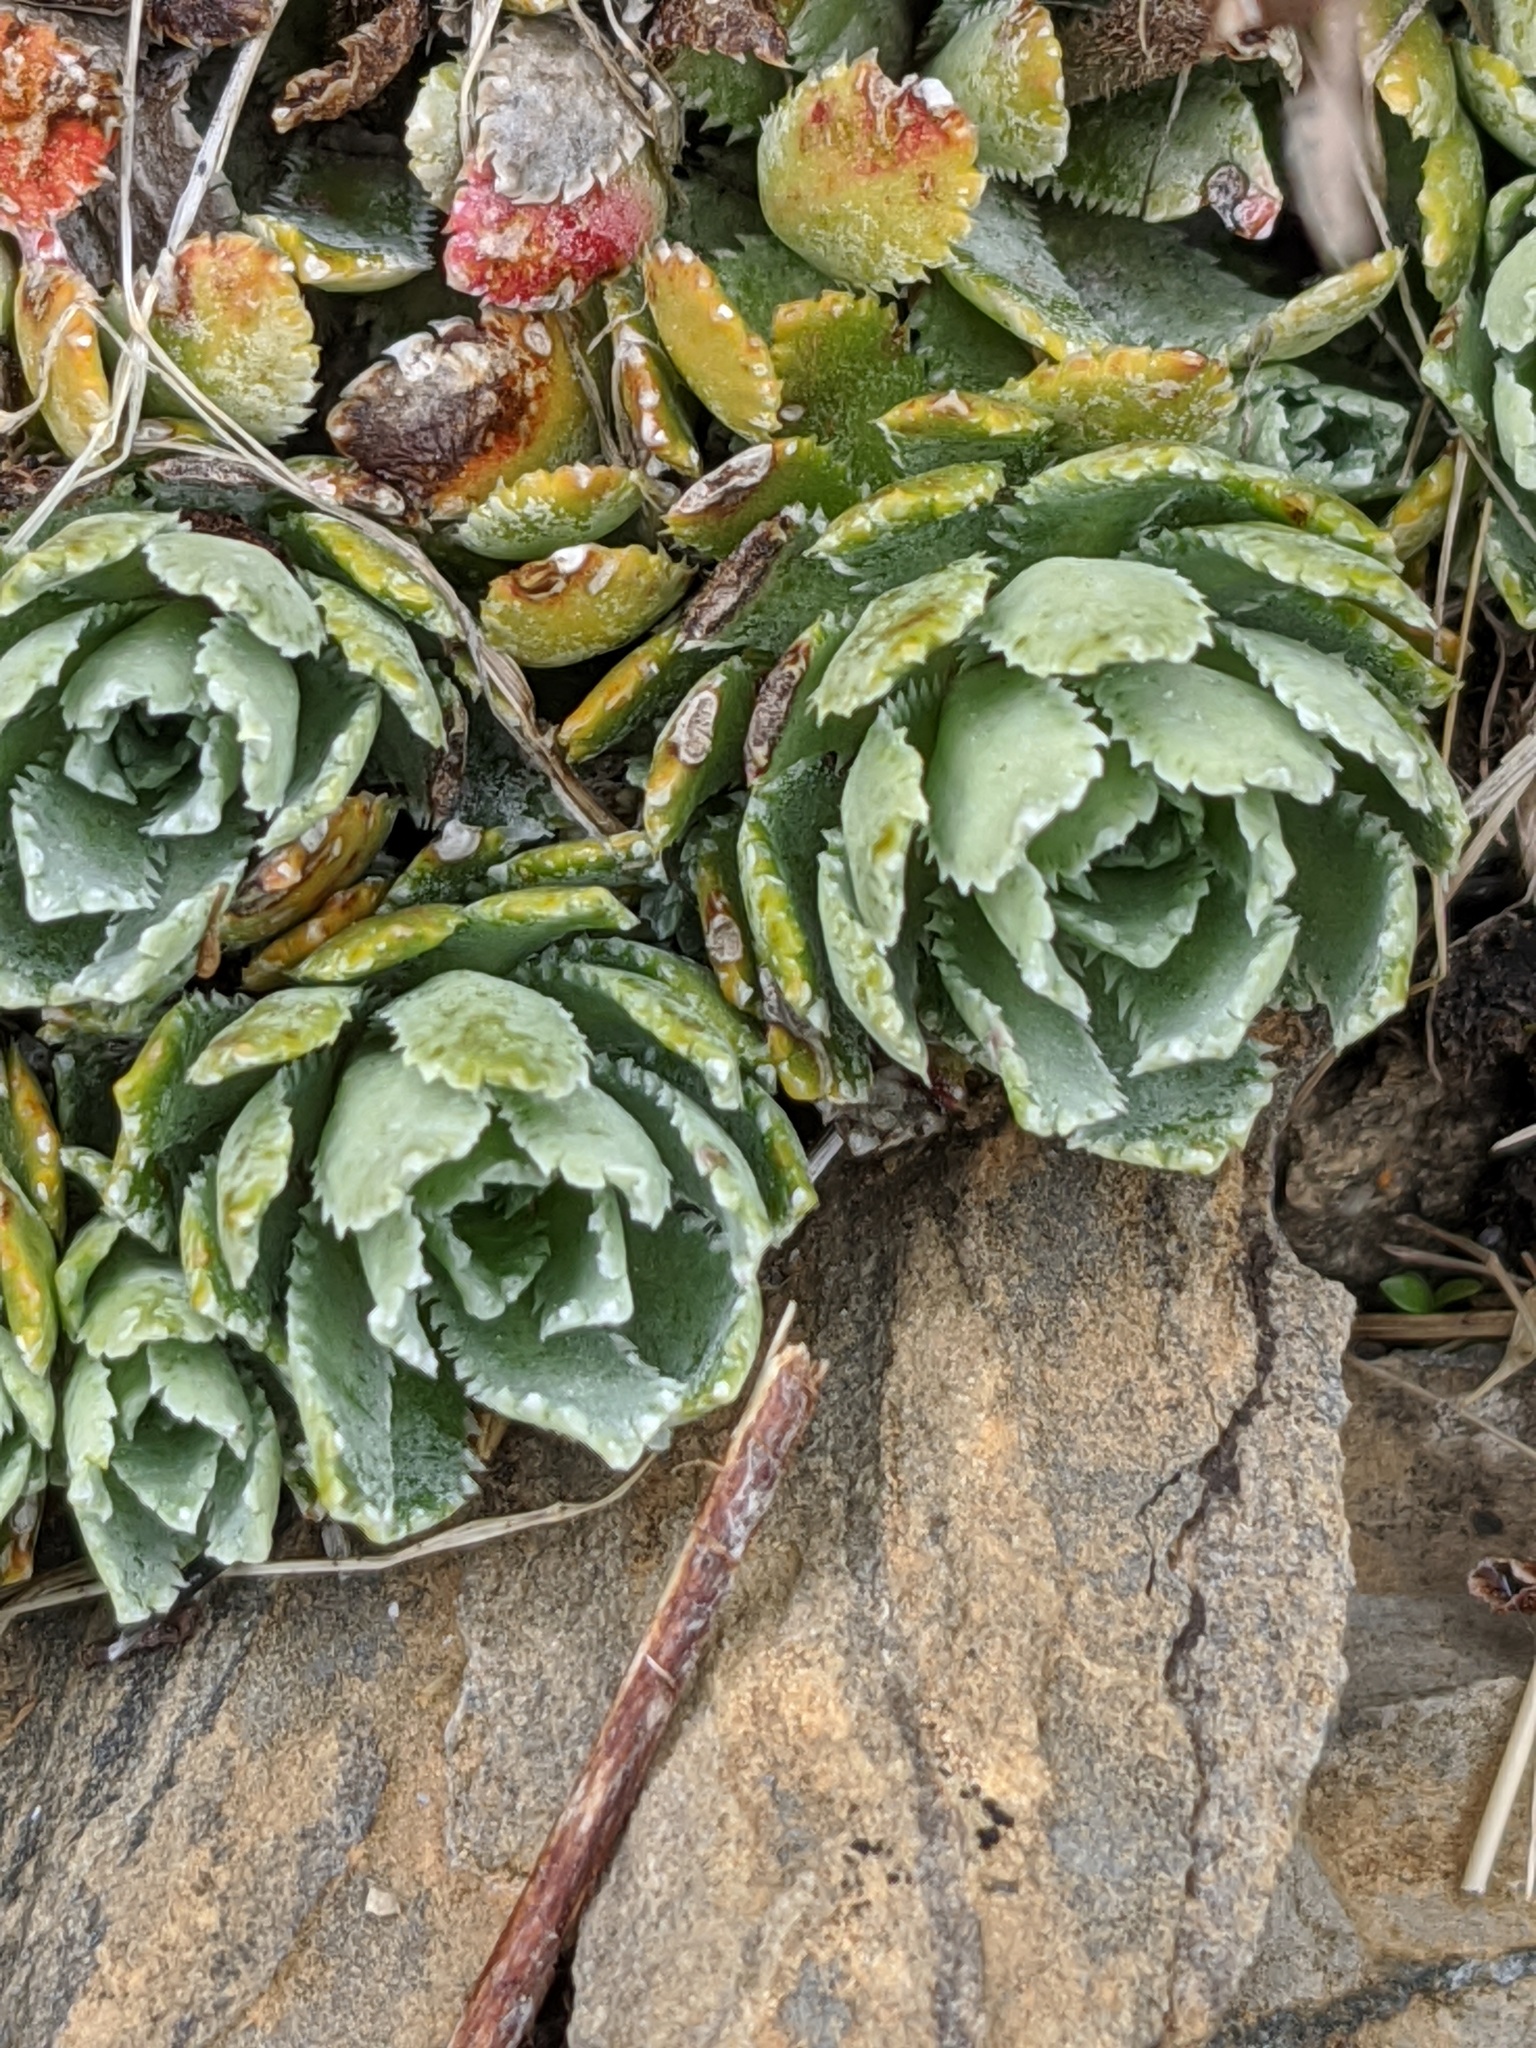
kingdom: Plantae
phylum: Tracheophyta
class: Magnoliopsida
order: Saxifragales
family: Saxifragaceae
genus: Saxifraga
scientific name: Saxifraga paniculata
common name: Livelong saxifrage
